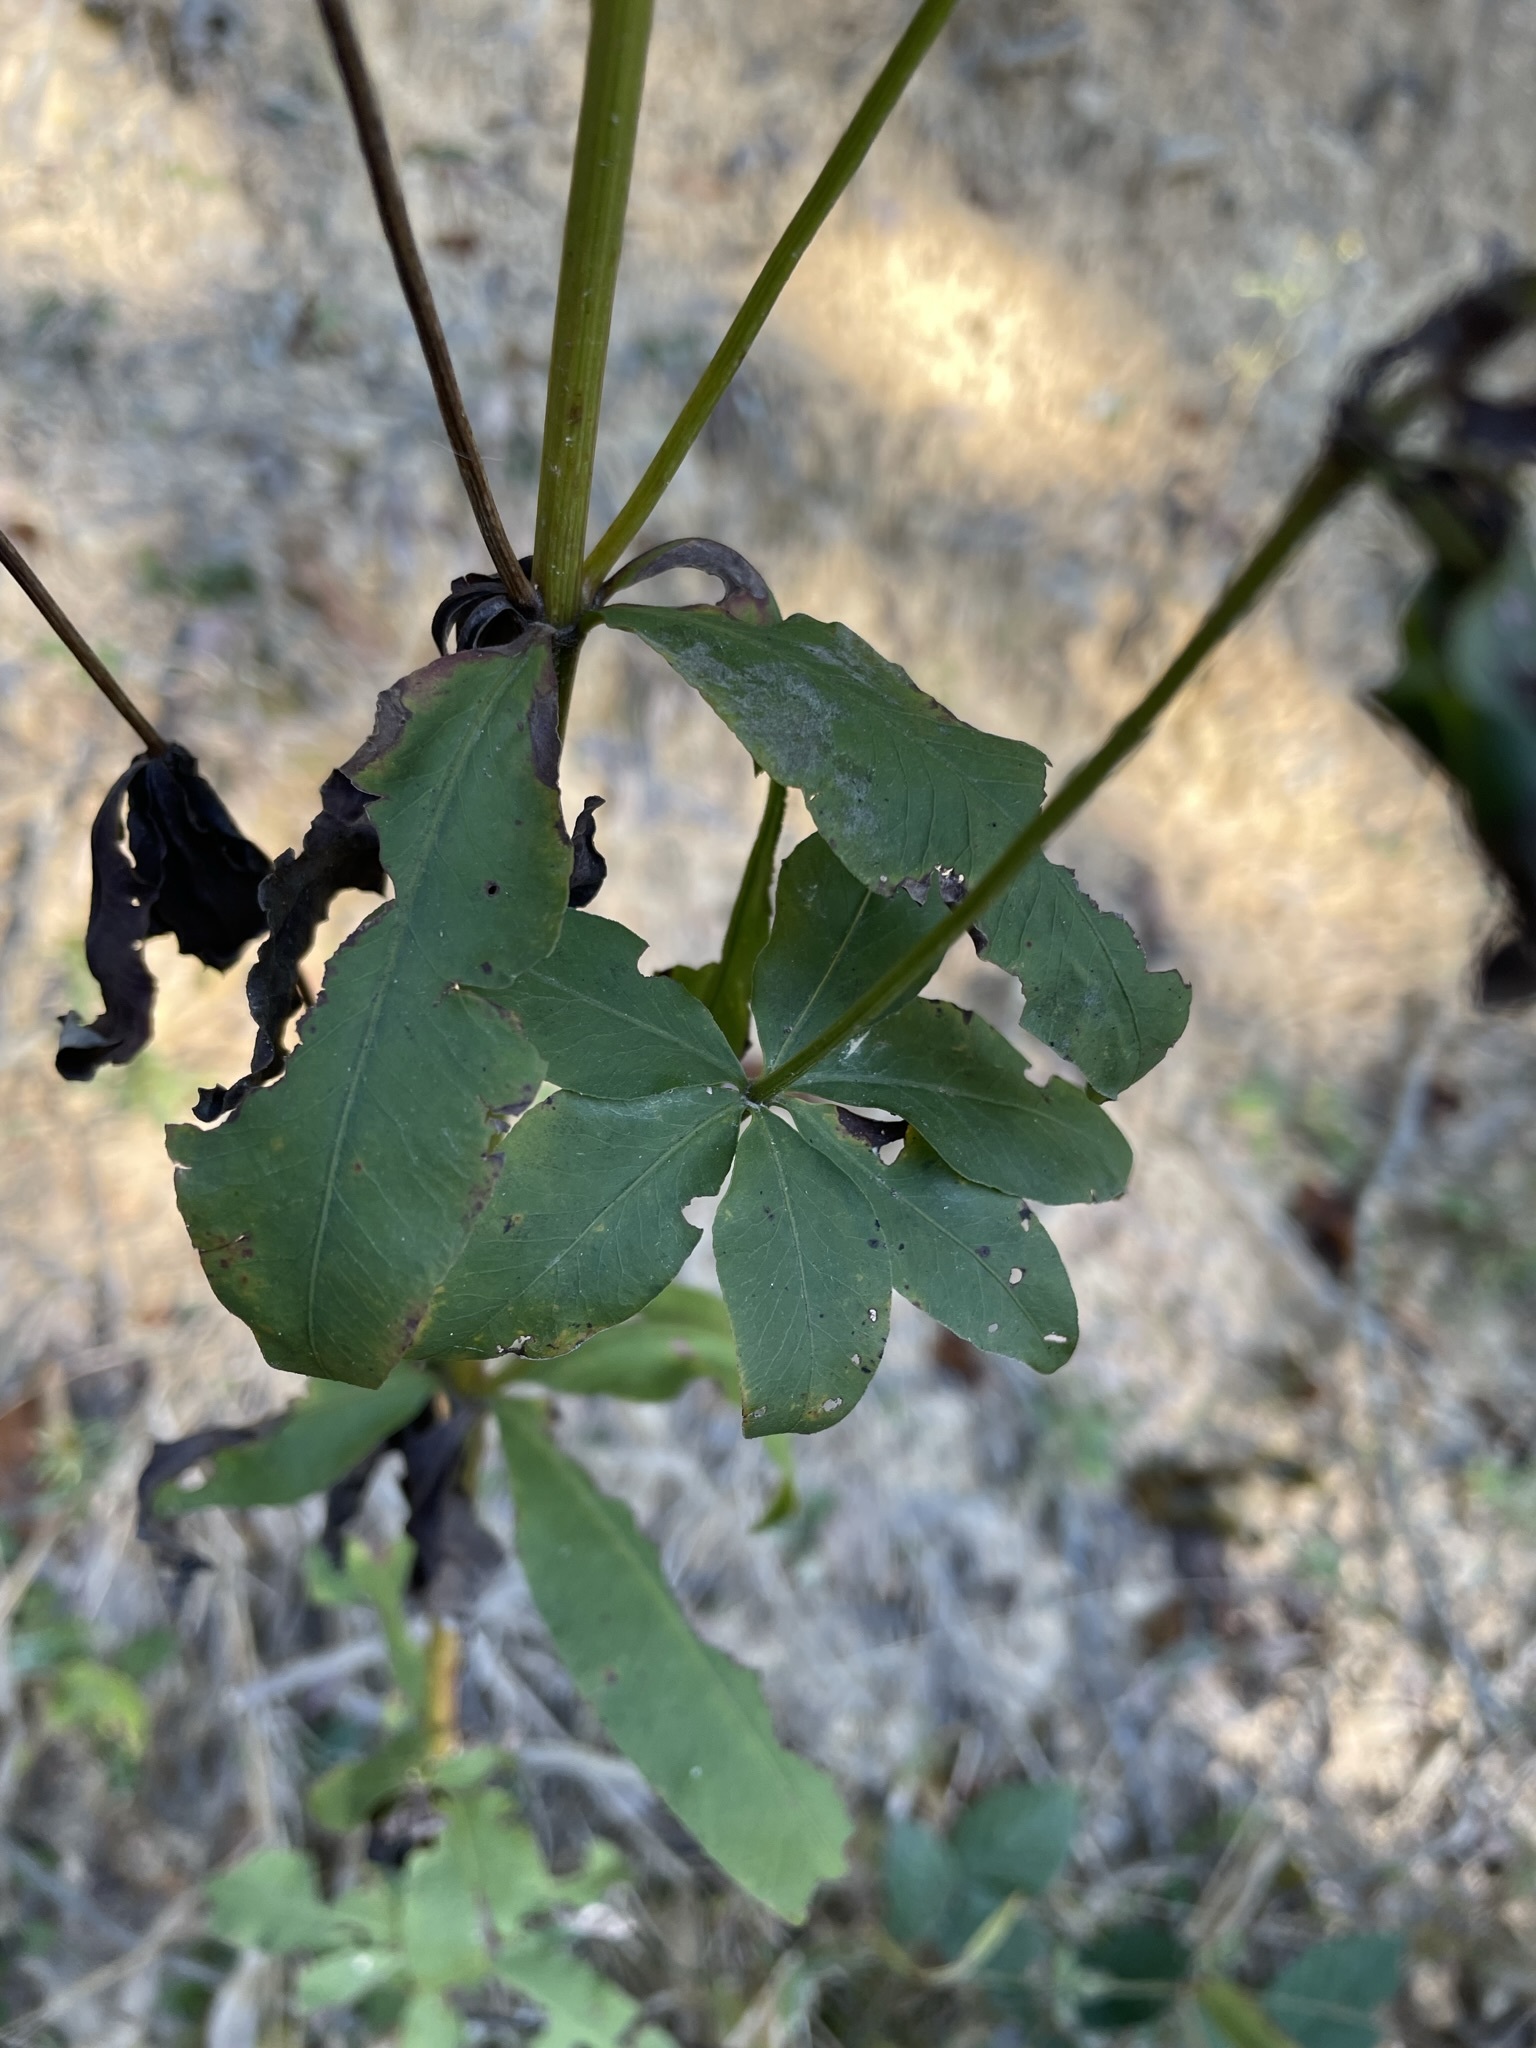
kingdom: Plantae
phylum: Tracheophyta
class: Magnoliopsida
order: Asterales
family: Asteraceae
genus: Coreopsis
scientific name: Coreopsis major
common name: Forest tickseed
